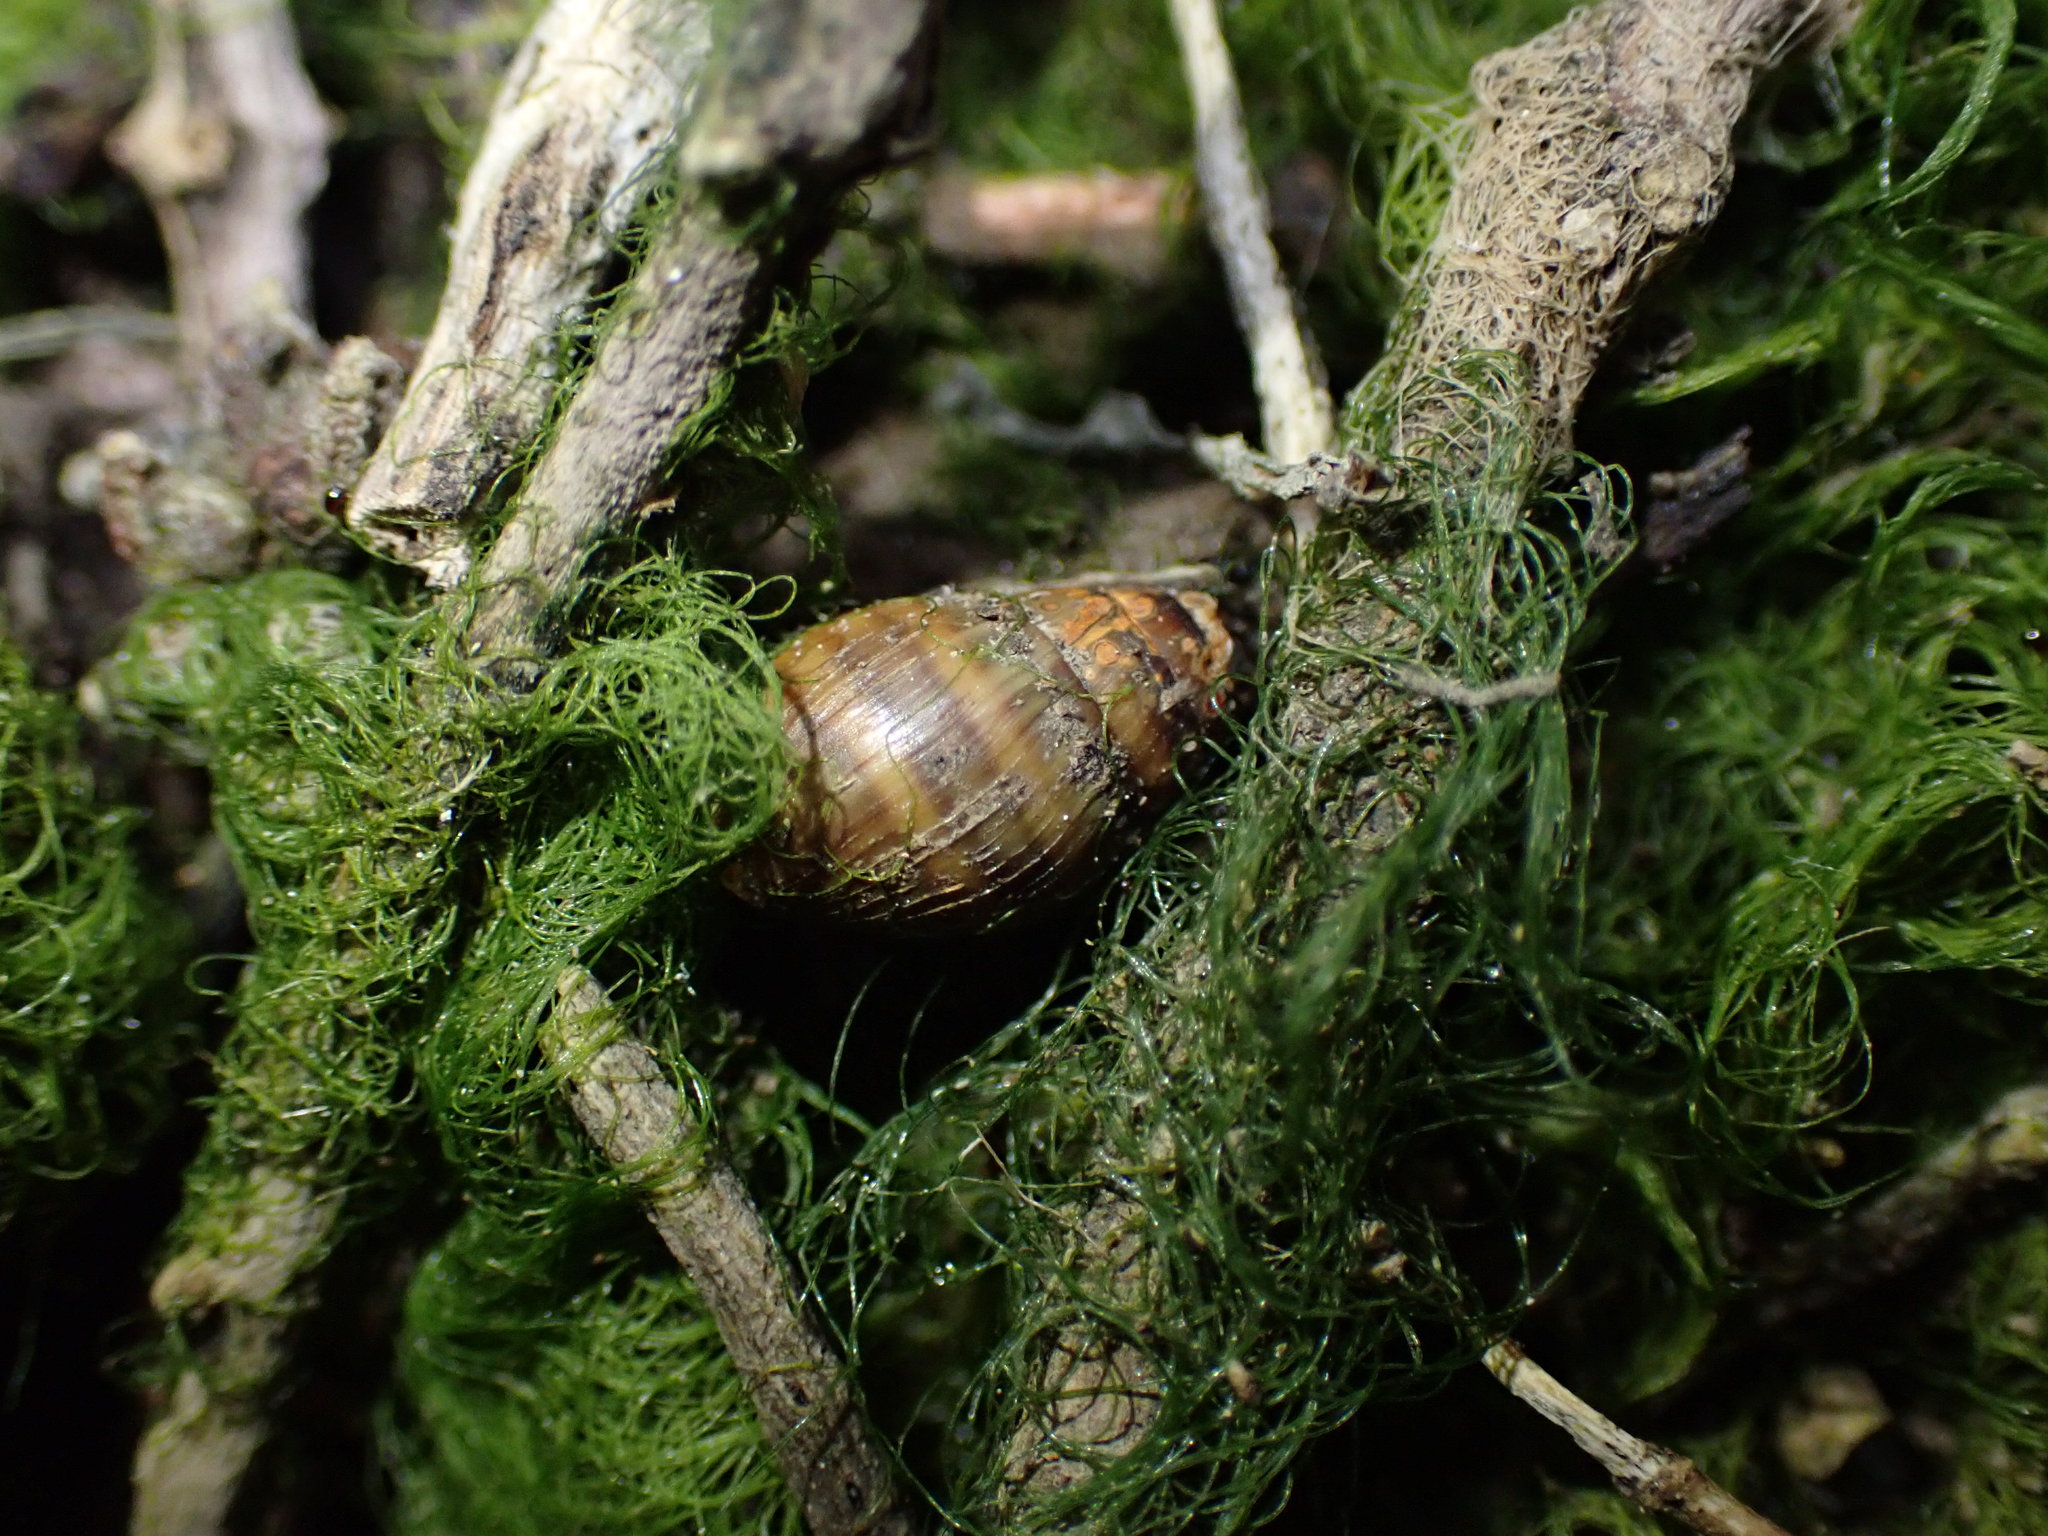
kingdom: Animalia
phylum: Mollusca
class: Gastropoda
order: Ellobiida
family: Ellobiidae
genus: Pleuroloba
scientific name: Pleuroloba costellaris
